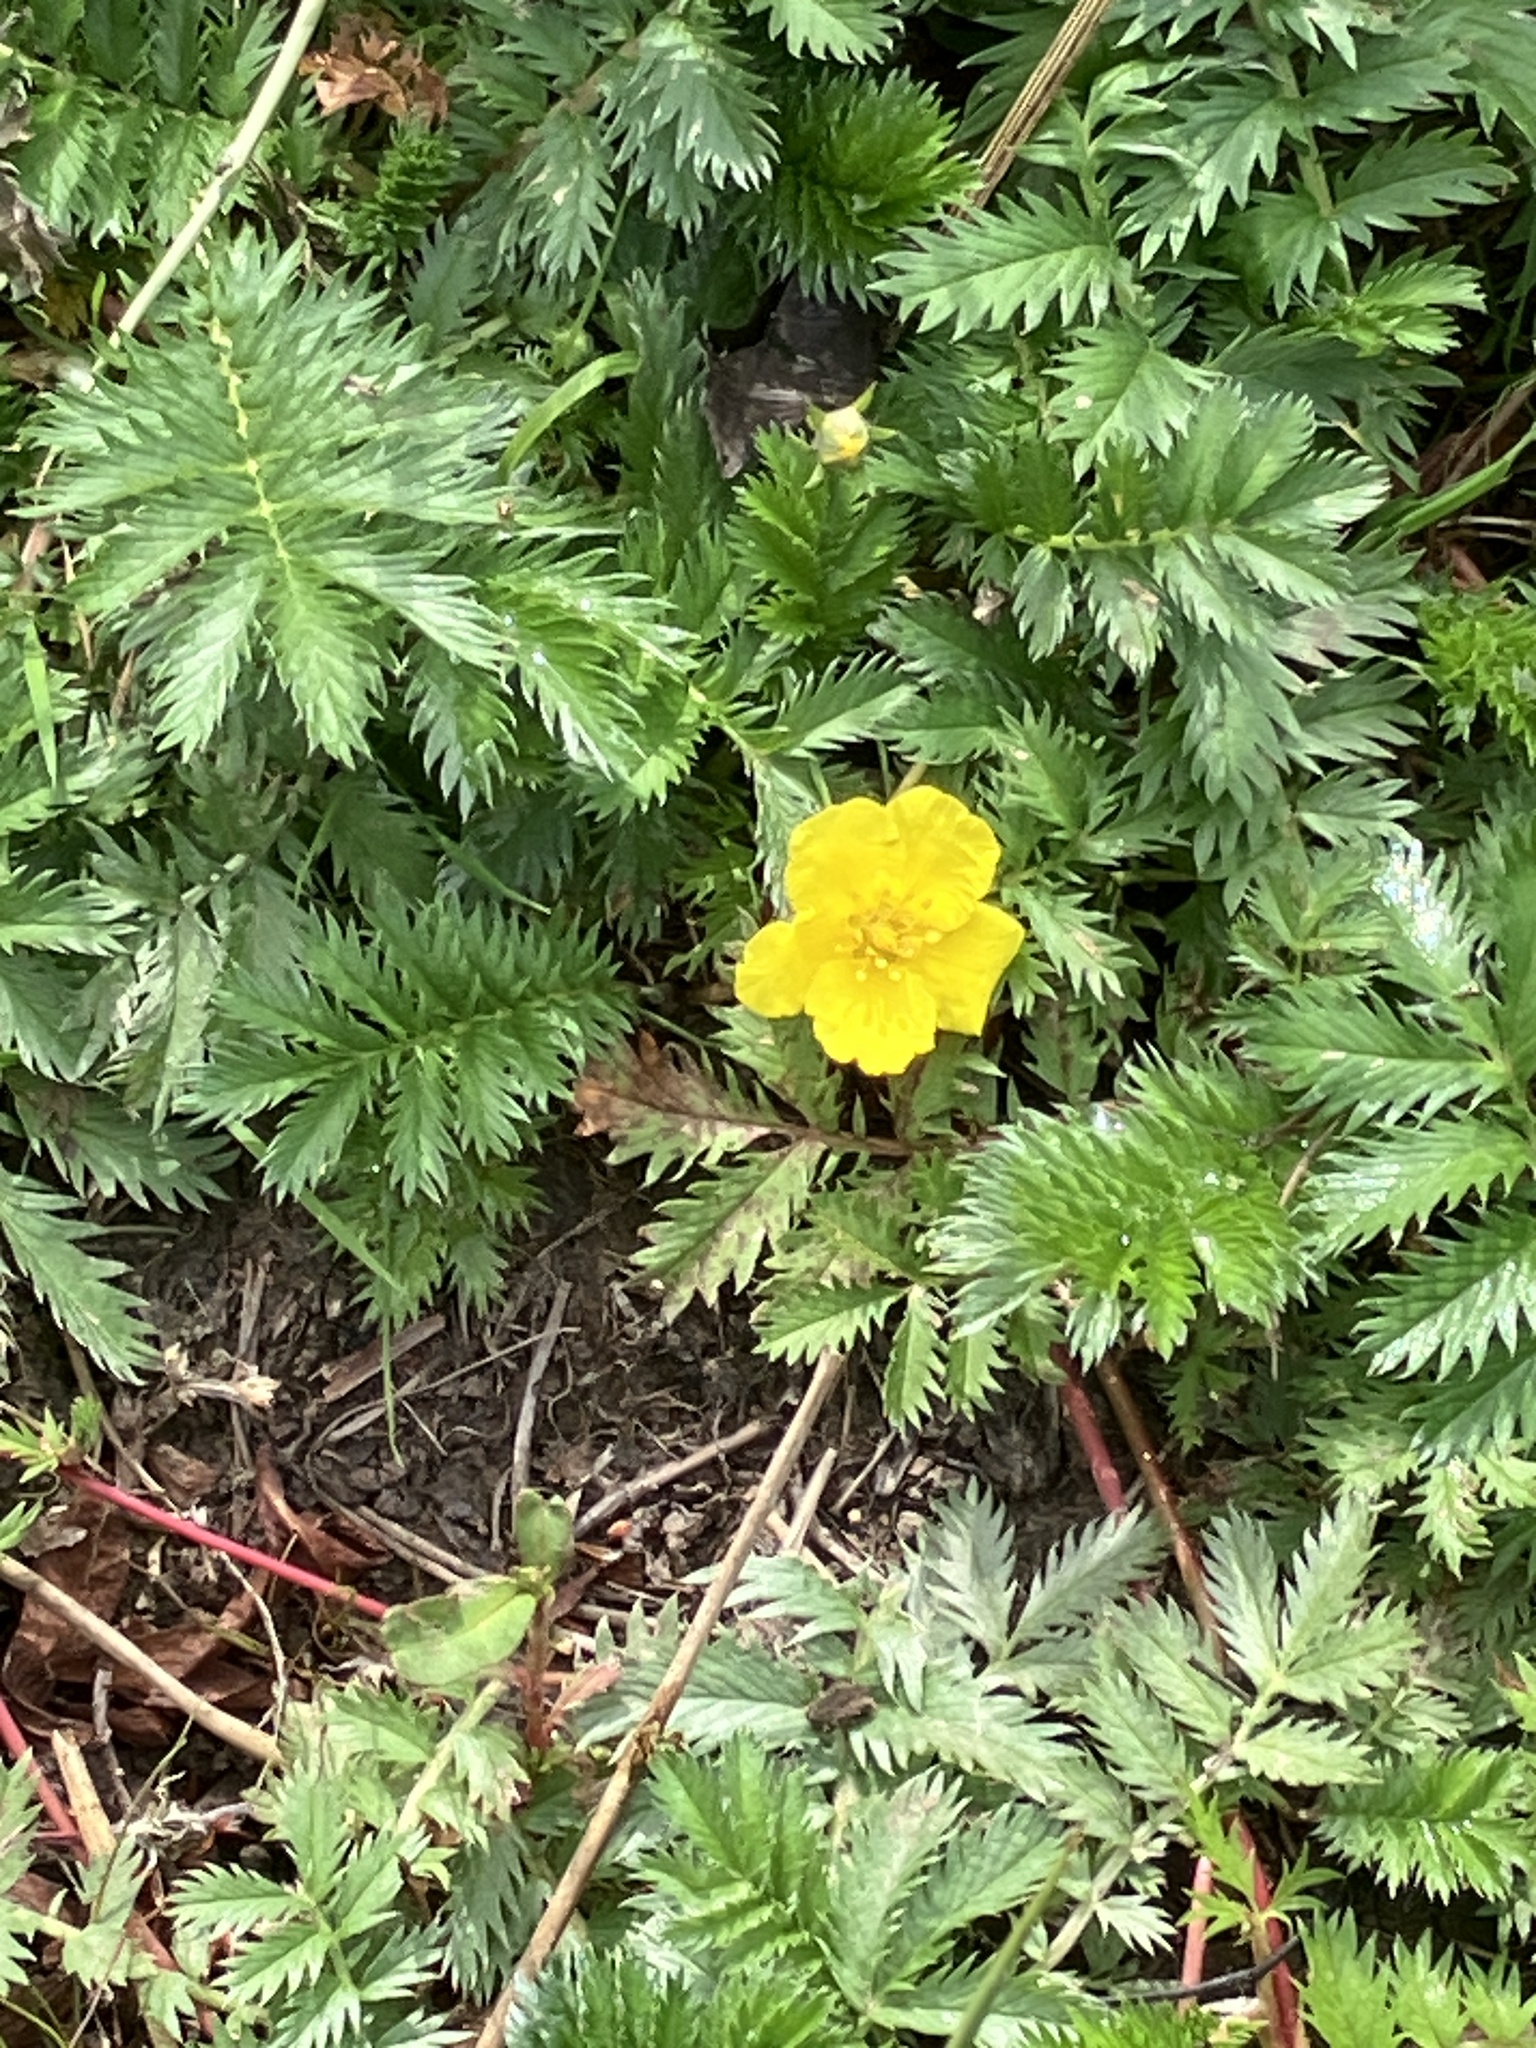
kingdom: Plantae
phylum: Tracheophyta
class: Magnoliopsida
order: Rosales
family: Rosaceae
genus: Argentina
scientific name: Argentina anserina
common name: Common silverweed
